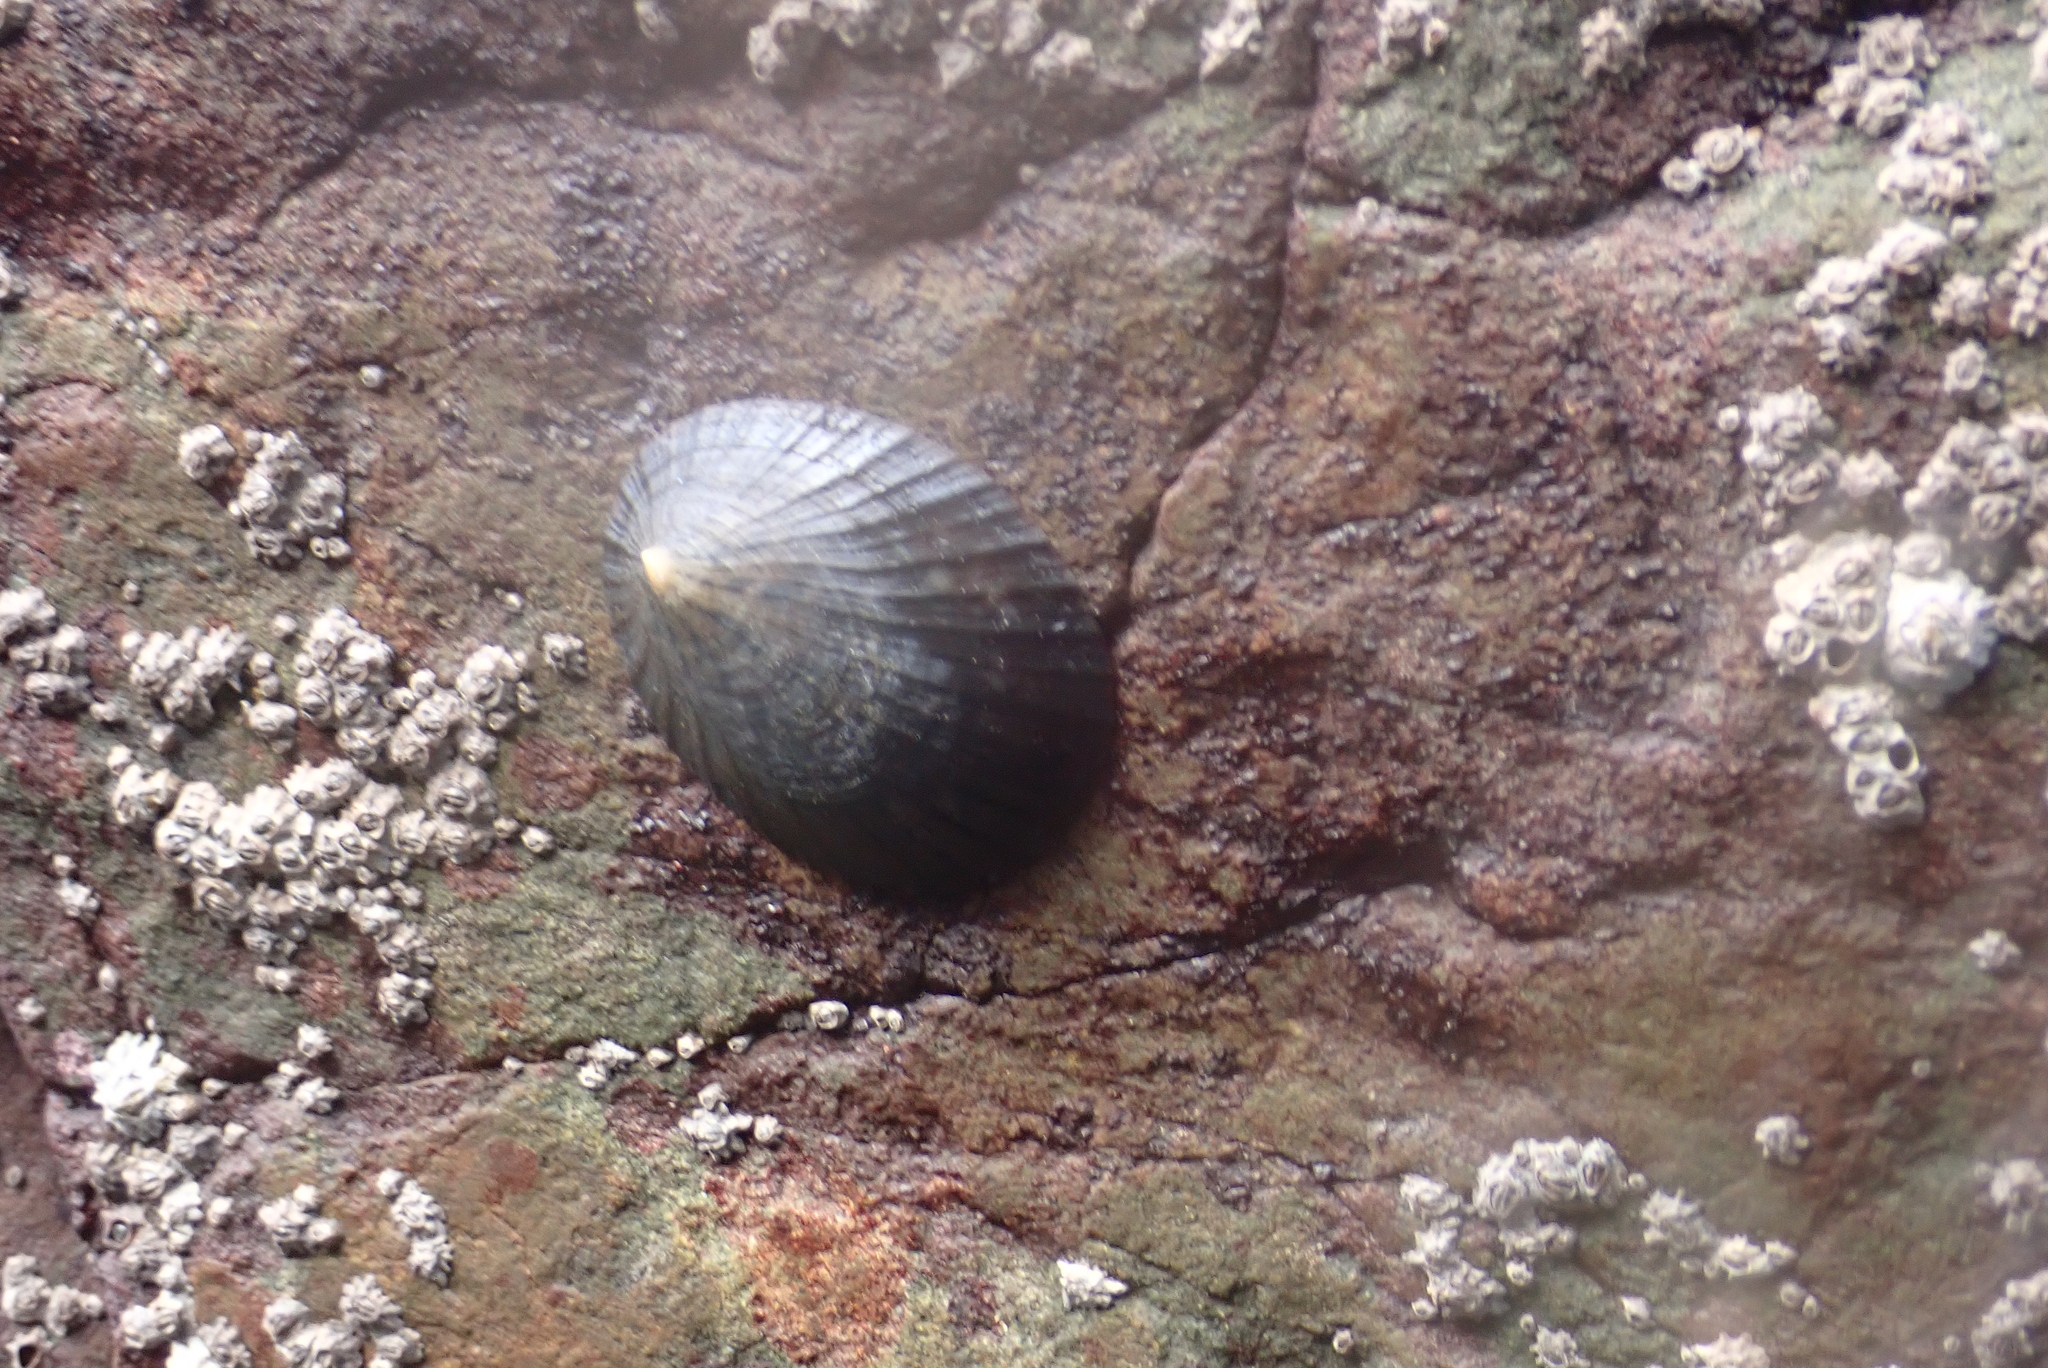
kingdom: Animalia
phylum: Mollusca
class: Gastropoda
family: Nacellidae
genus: Cellana
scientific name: Cellana radians
